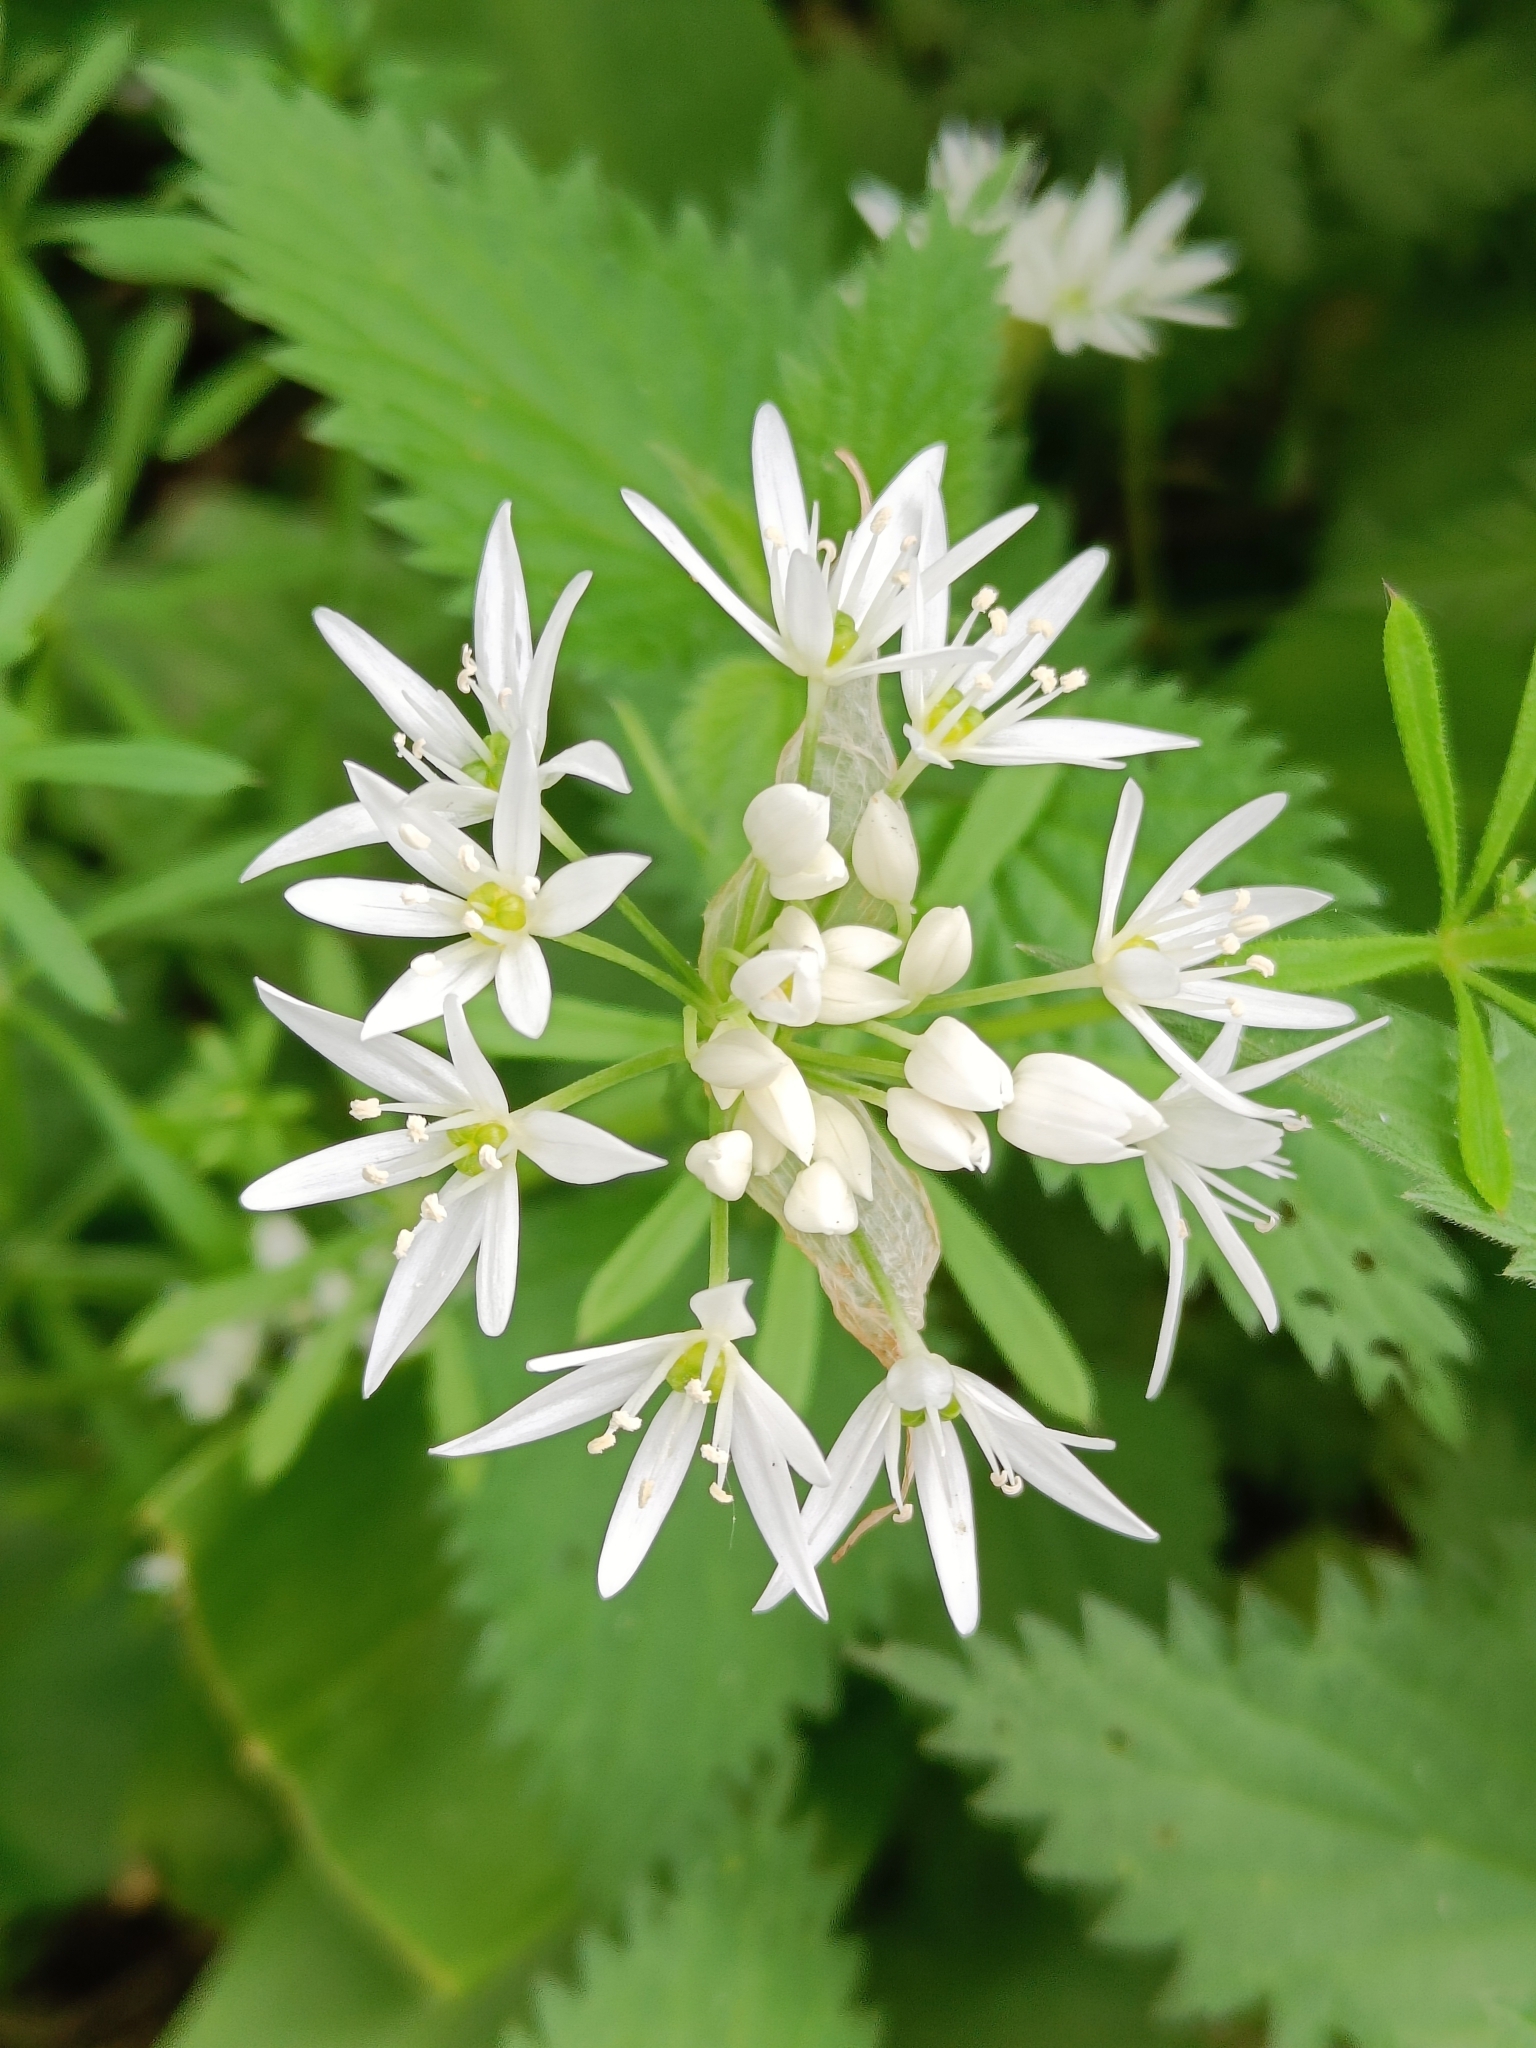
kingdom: Plantae
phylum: Tracheophyta
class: Liliopsida
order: Asparagales
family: Amaryllidaceae
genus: Allium
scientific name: Allium ursinum
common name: Ramsons
